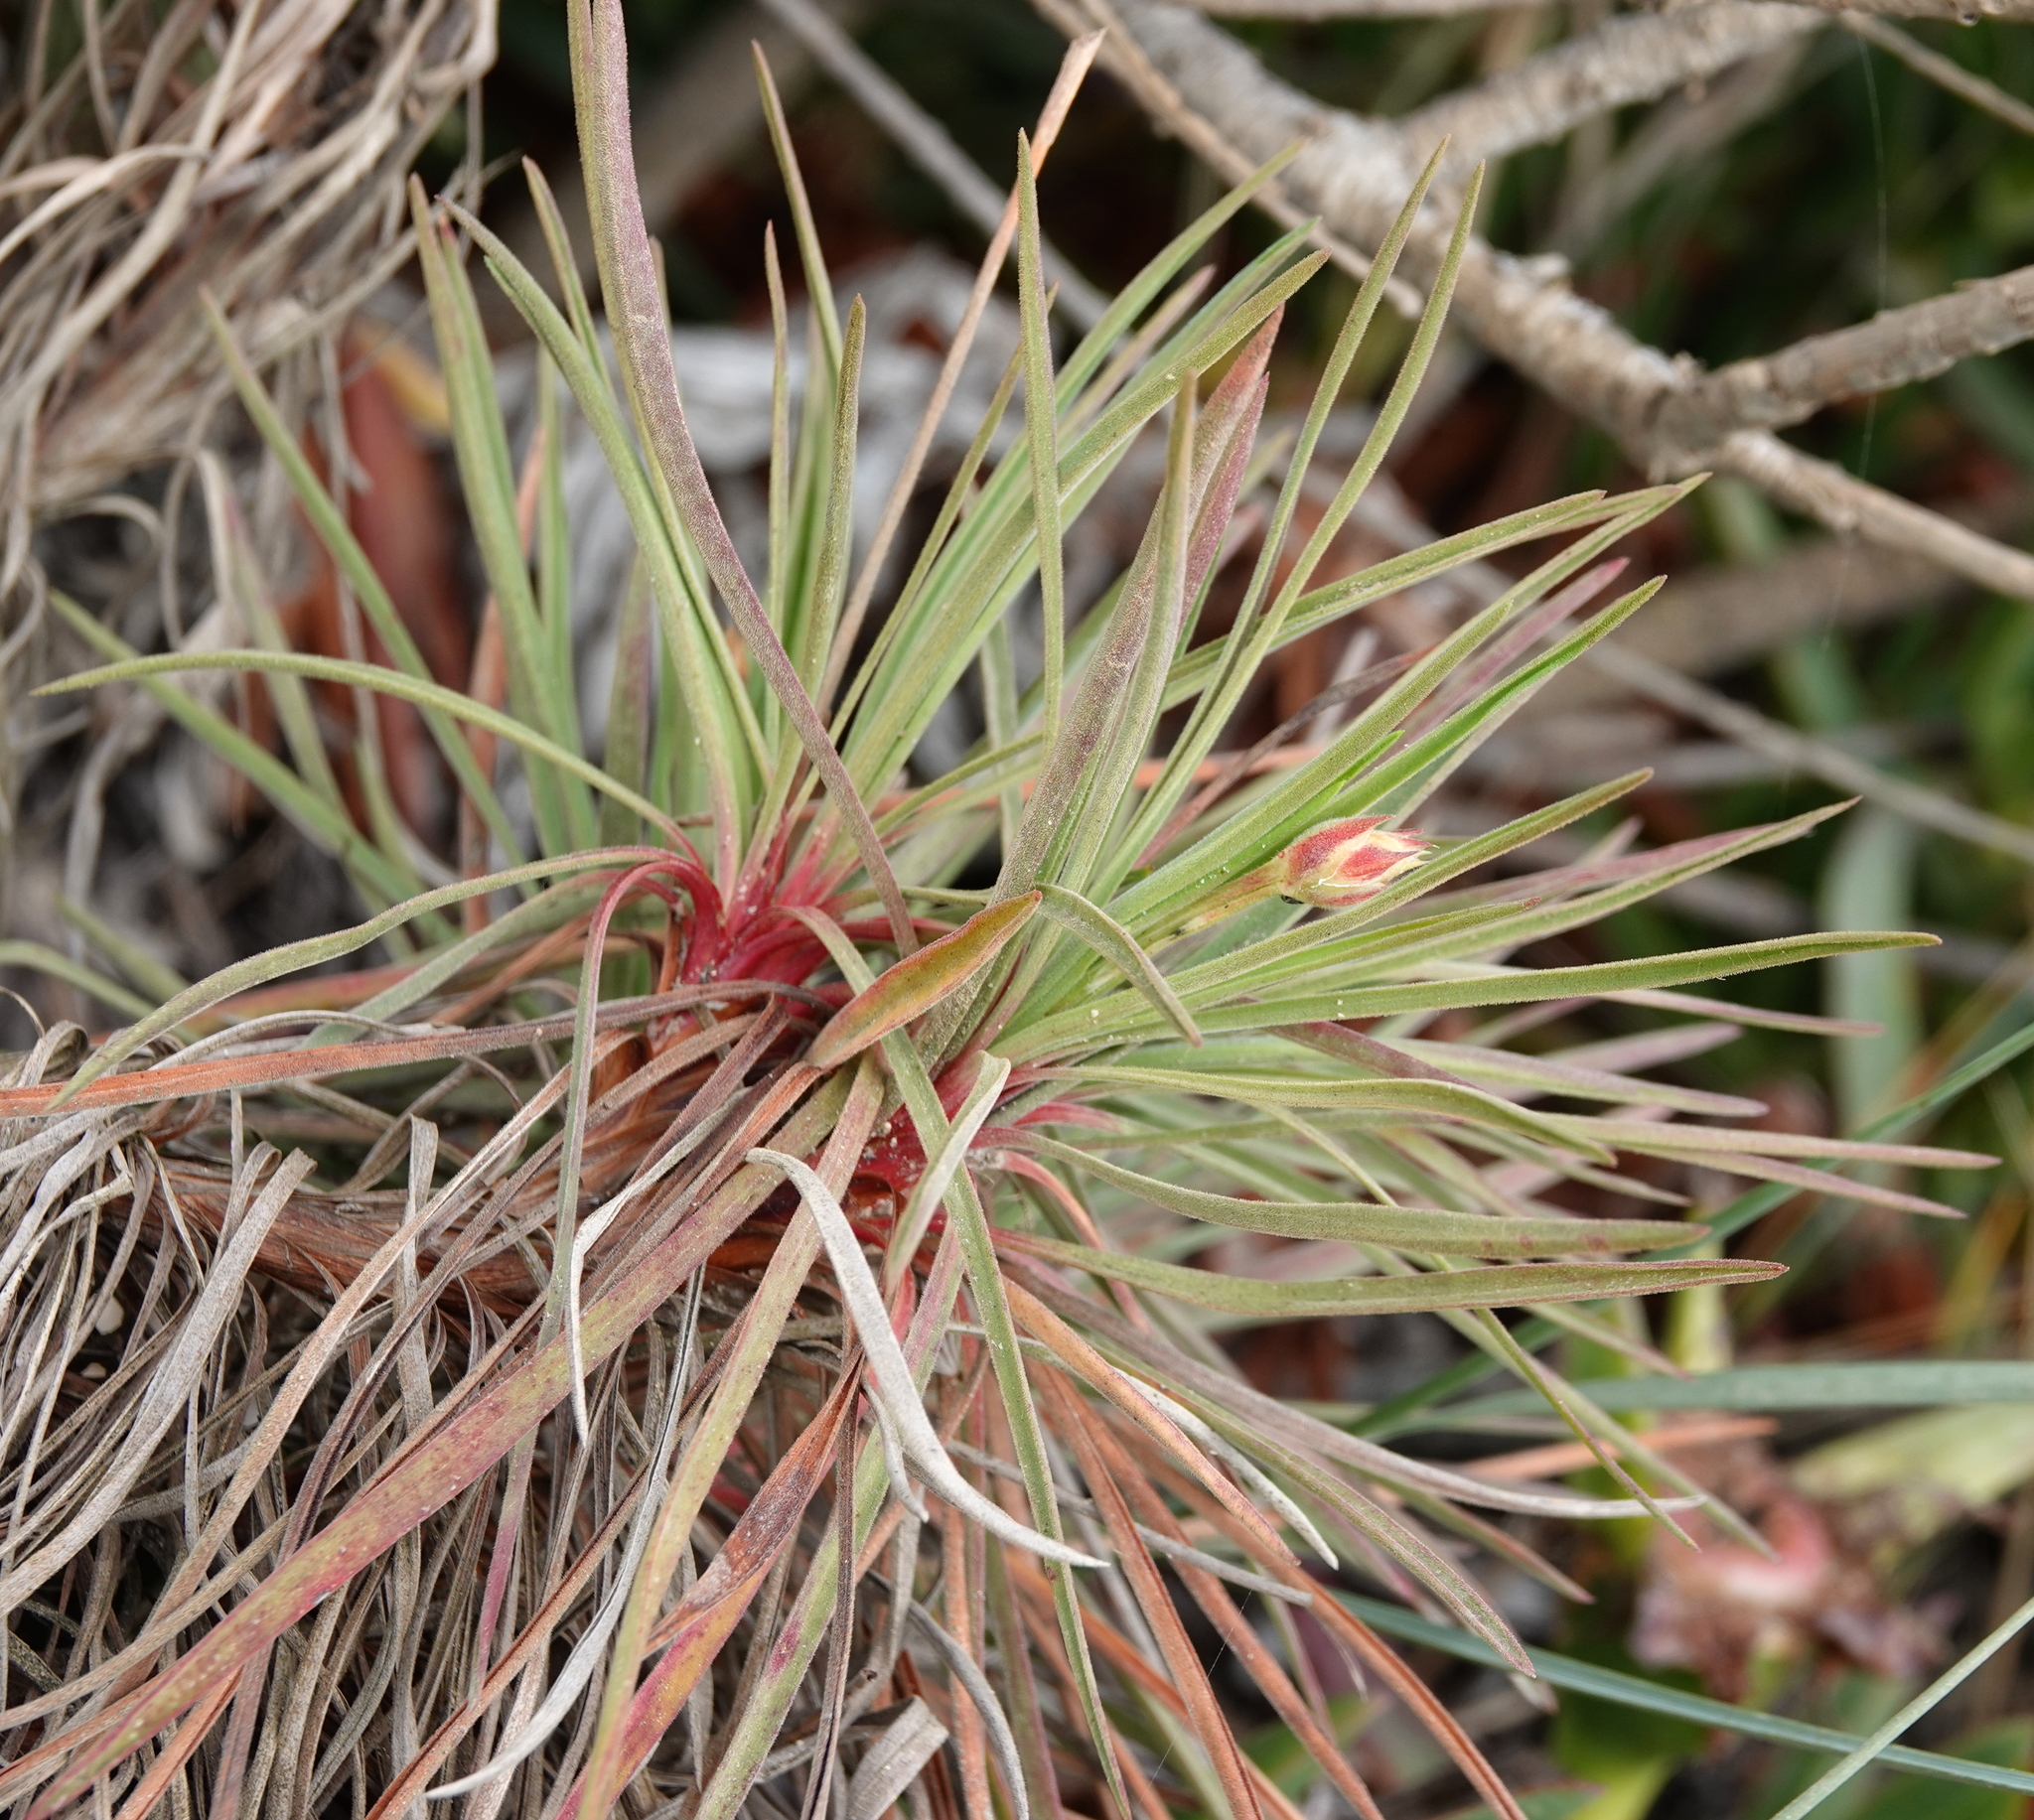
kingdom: Plantae
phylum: Tracheophyta
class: Magnoliopsida
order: Caryophyllales
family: Plumbaginaceae
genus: Armeria
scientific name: Armeria welwitschii
